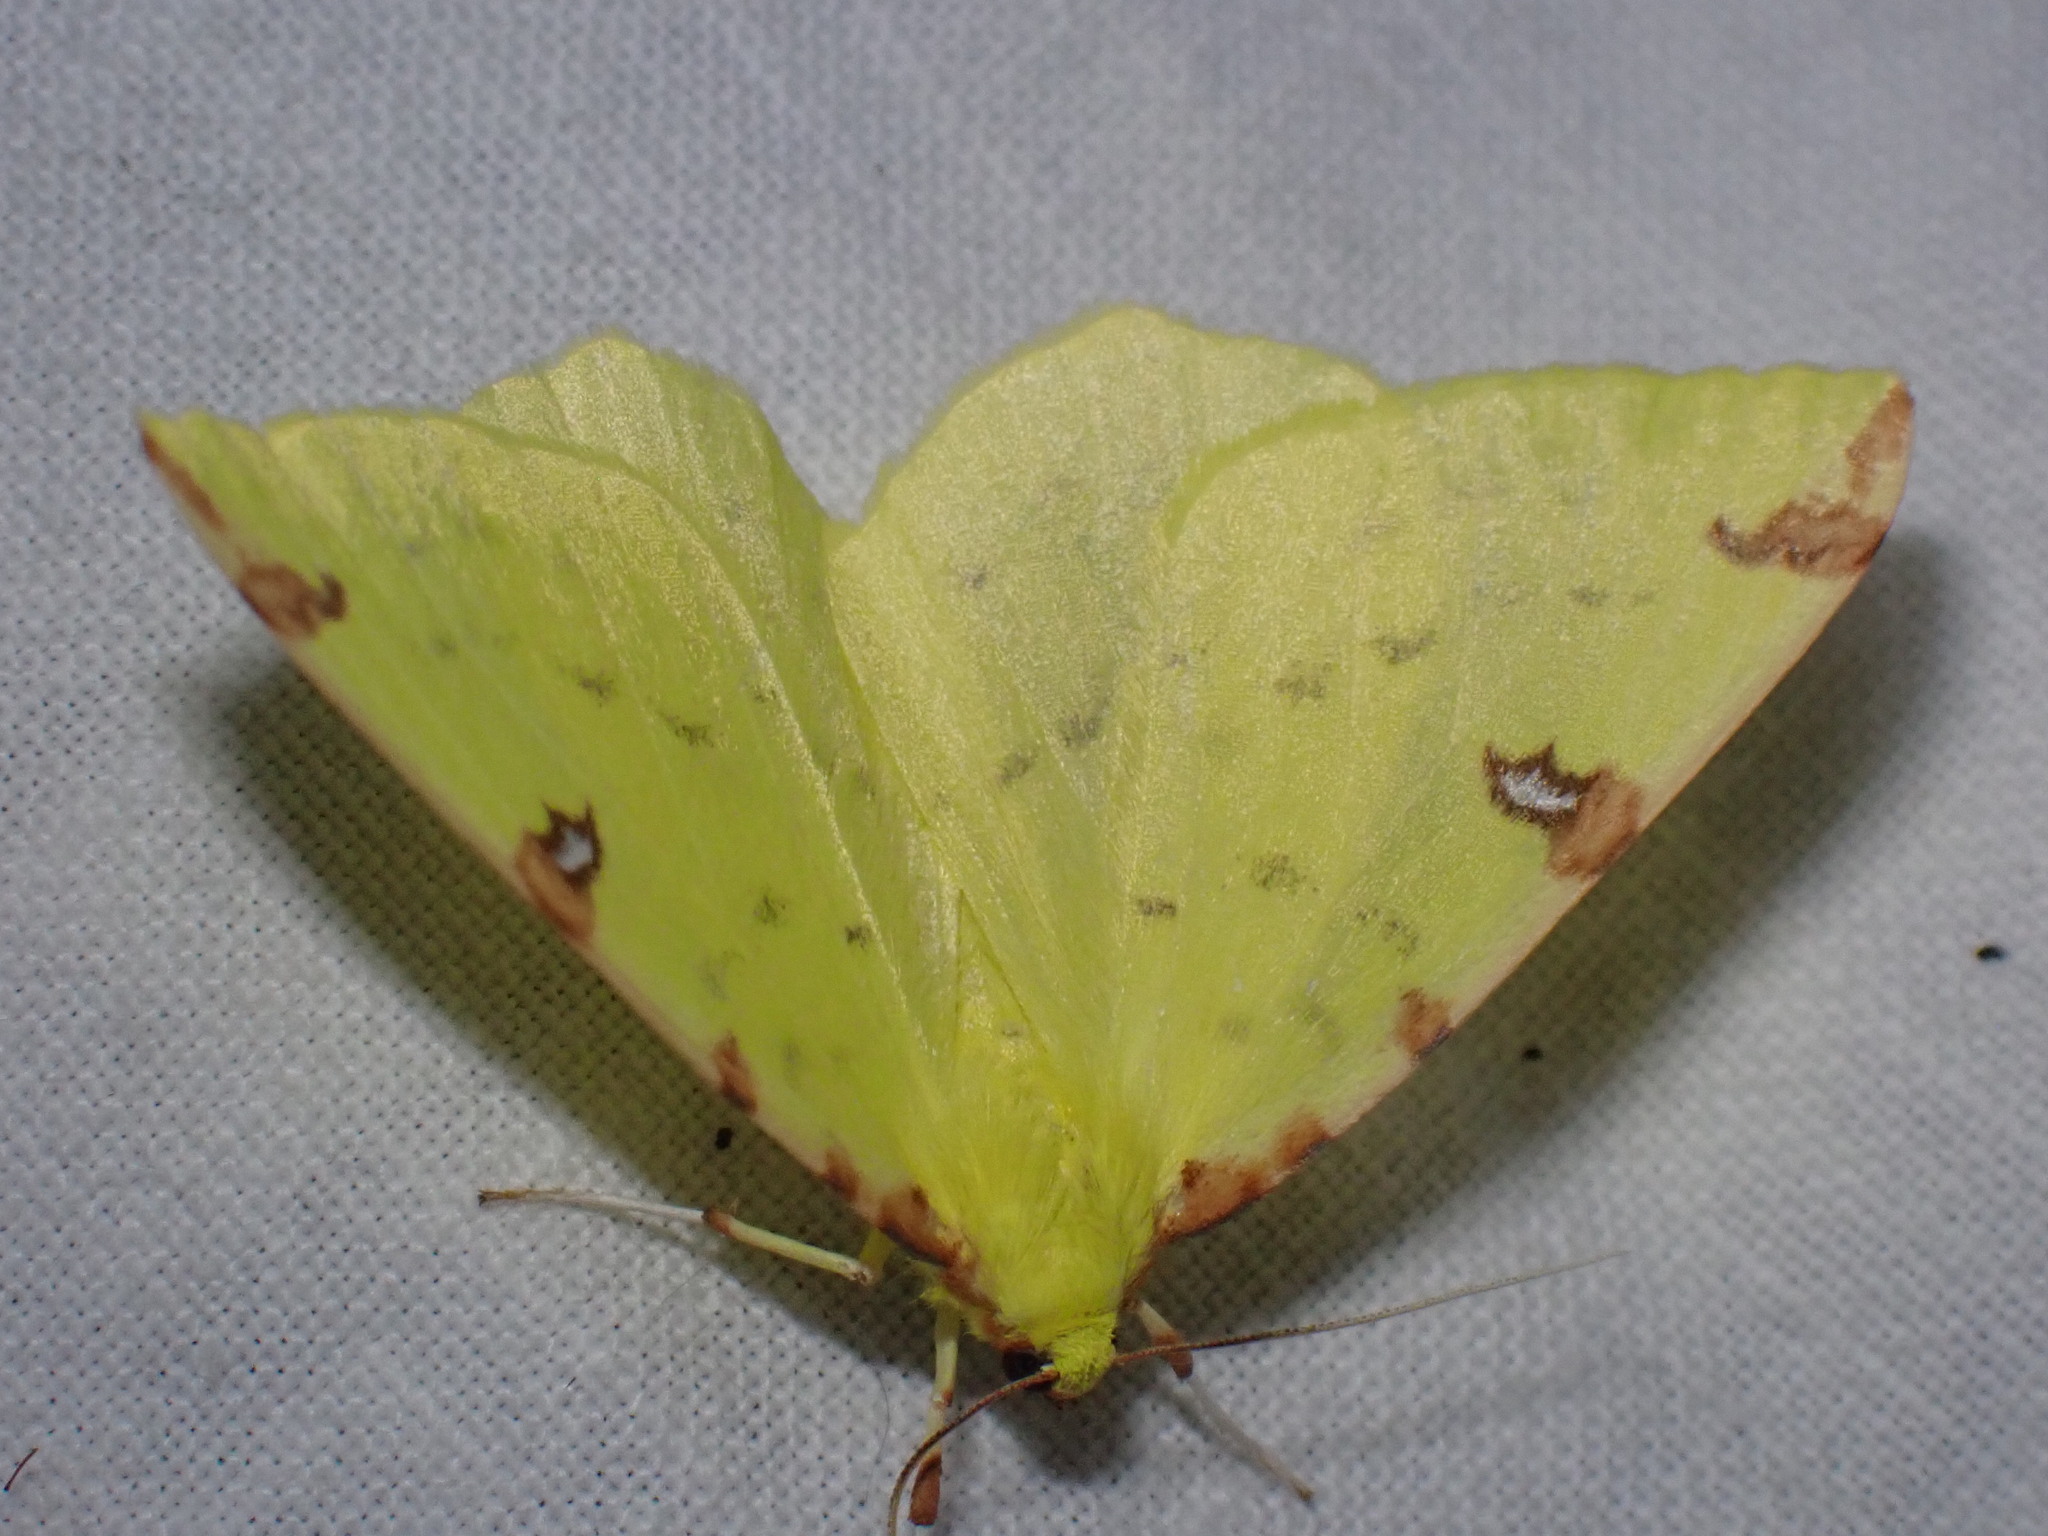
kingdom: Animalia
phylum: Arthropoda
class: Insecta
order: Lepidoptera
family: Geometridae
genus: Opisthograptis
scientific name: Opisthograptis luteolata
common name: Brimstone moth
